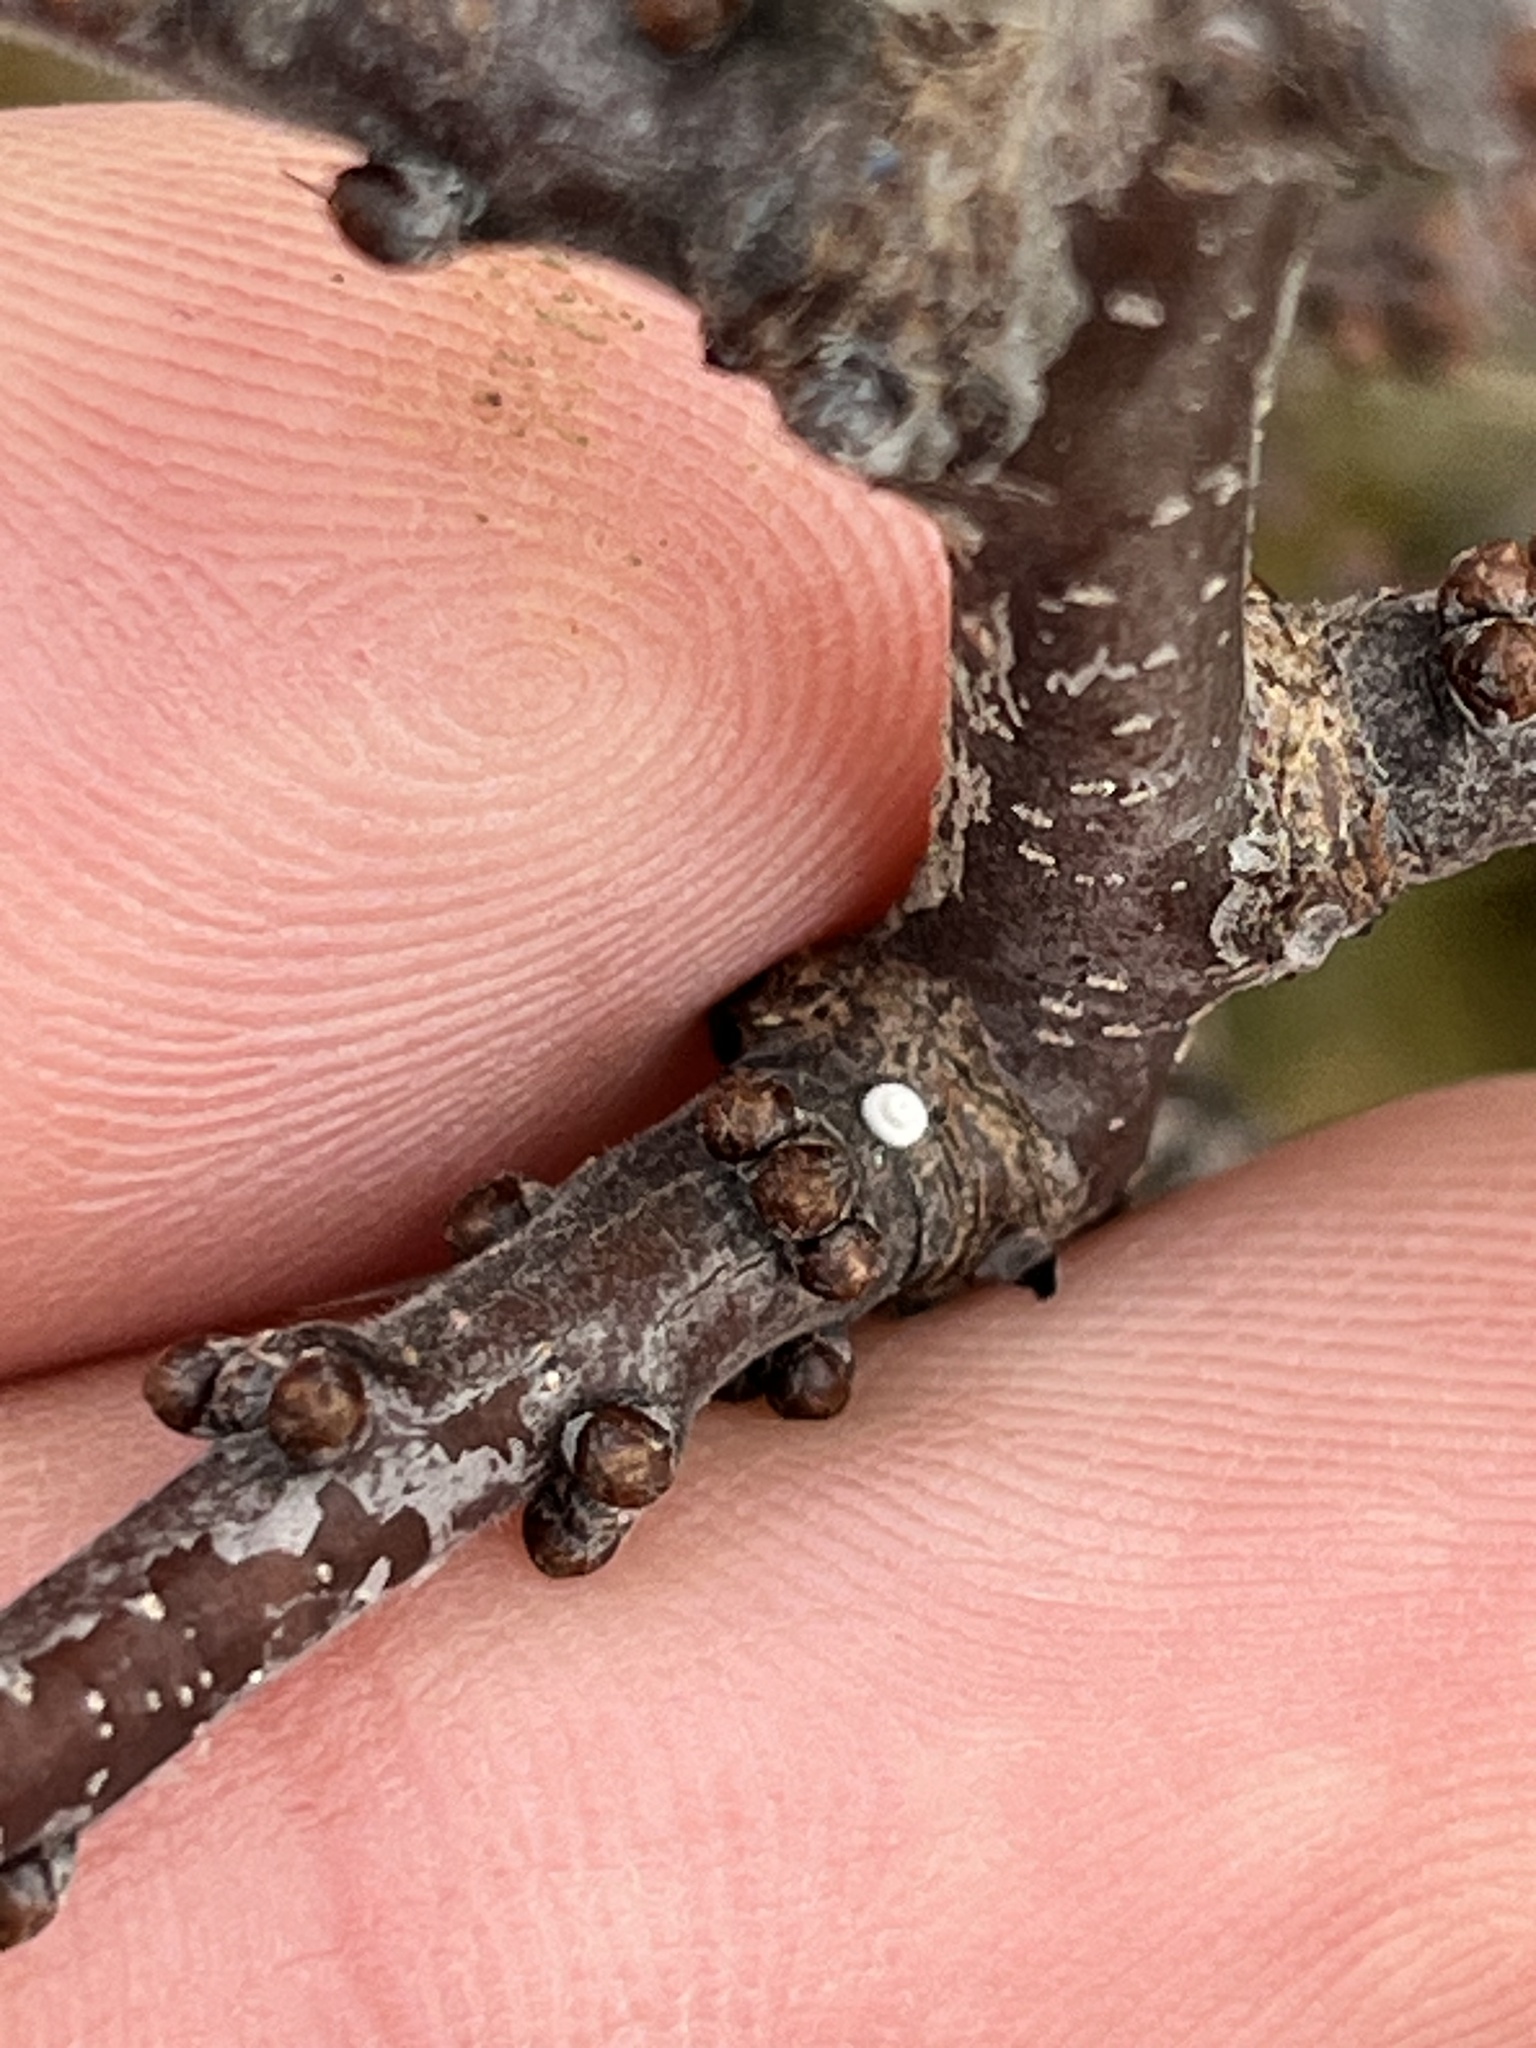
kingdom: Animalia
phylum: Arthropoda
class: Insecta
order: Lepidoptera
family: Lycaenidae
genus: Thecla
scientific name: Thecla betulae
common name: Brown hairstreak
